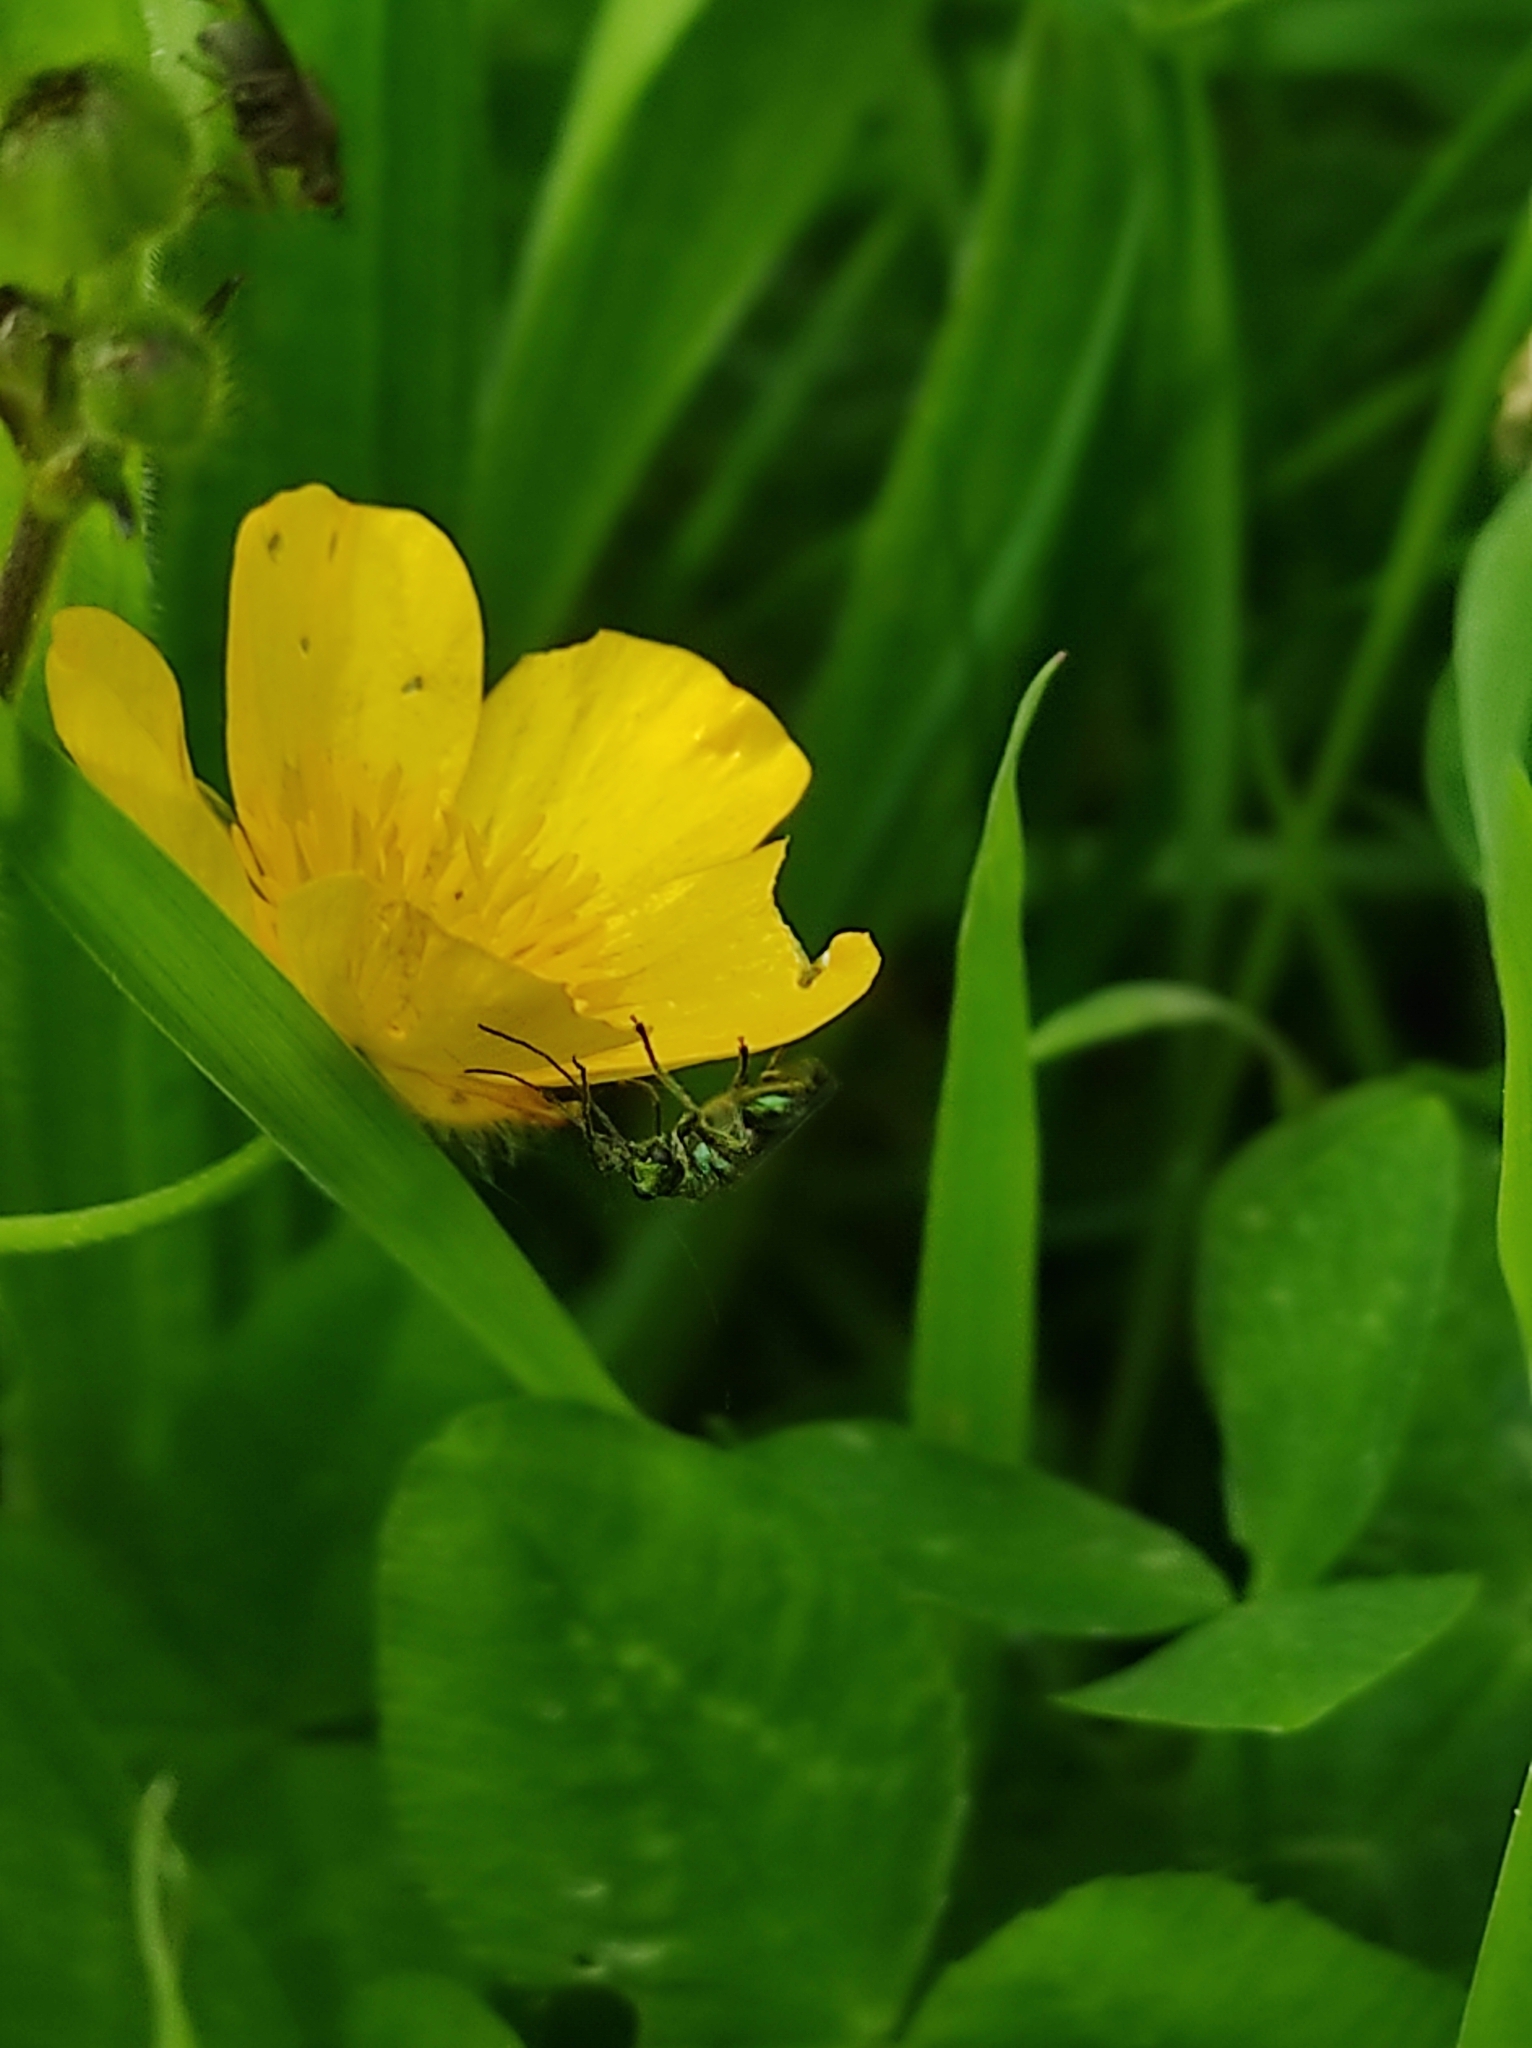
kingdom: Animalia
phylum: Arthropoda
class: Insecta
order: Coleoptera
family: Oedemeridae
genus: Oedemera
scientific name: Oedemera nobilis
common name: Swollen-thighed beetle
